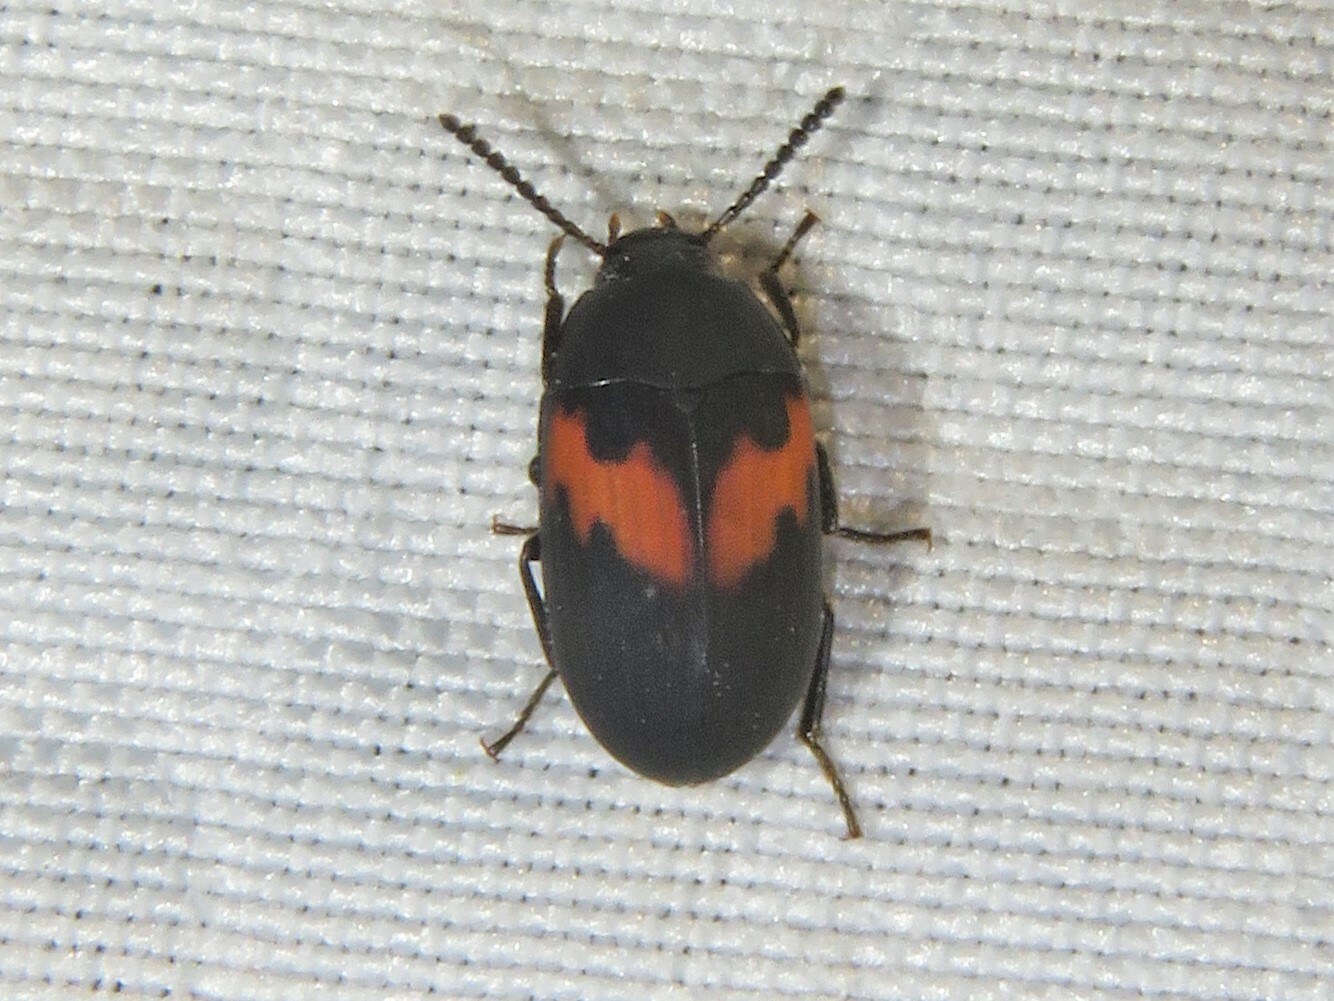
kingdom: Animalia
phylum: Arthropoda
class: Insecta
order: Coleoptera
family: Tenebrionidae
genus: Platydema
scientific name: Platydema elliptica
